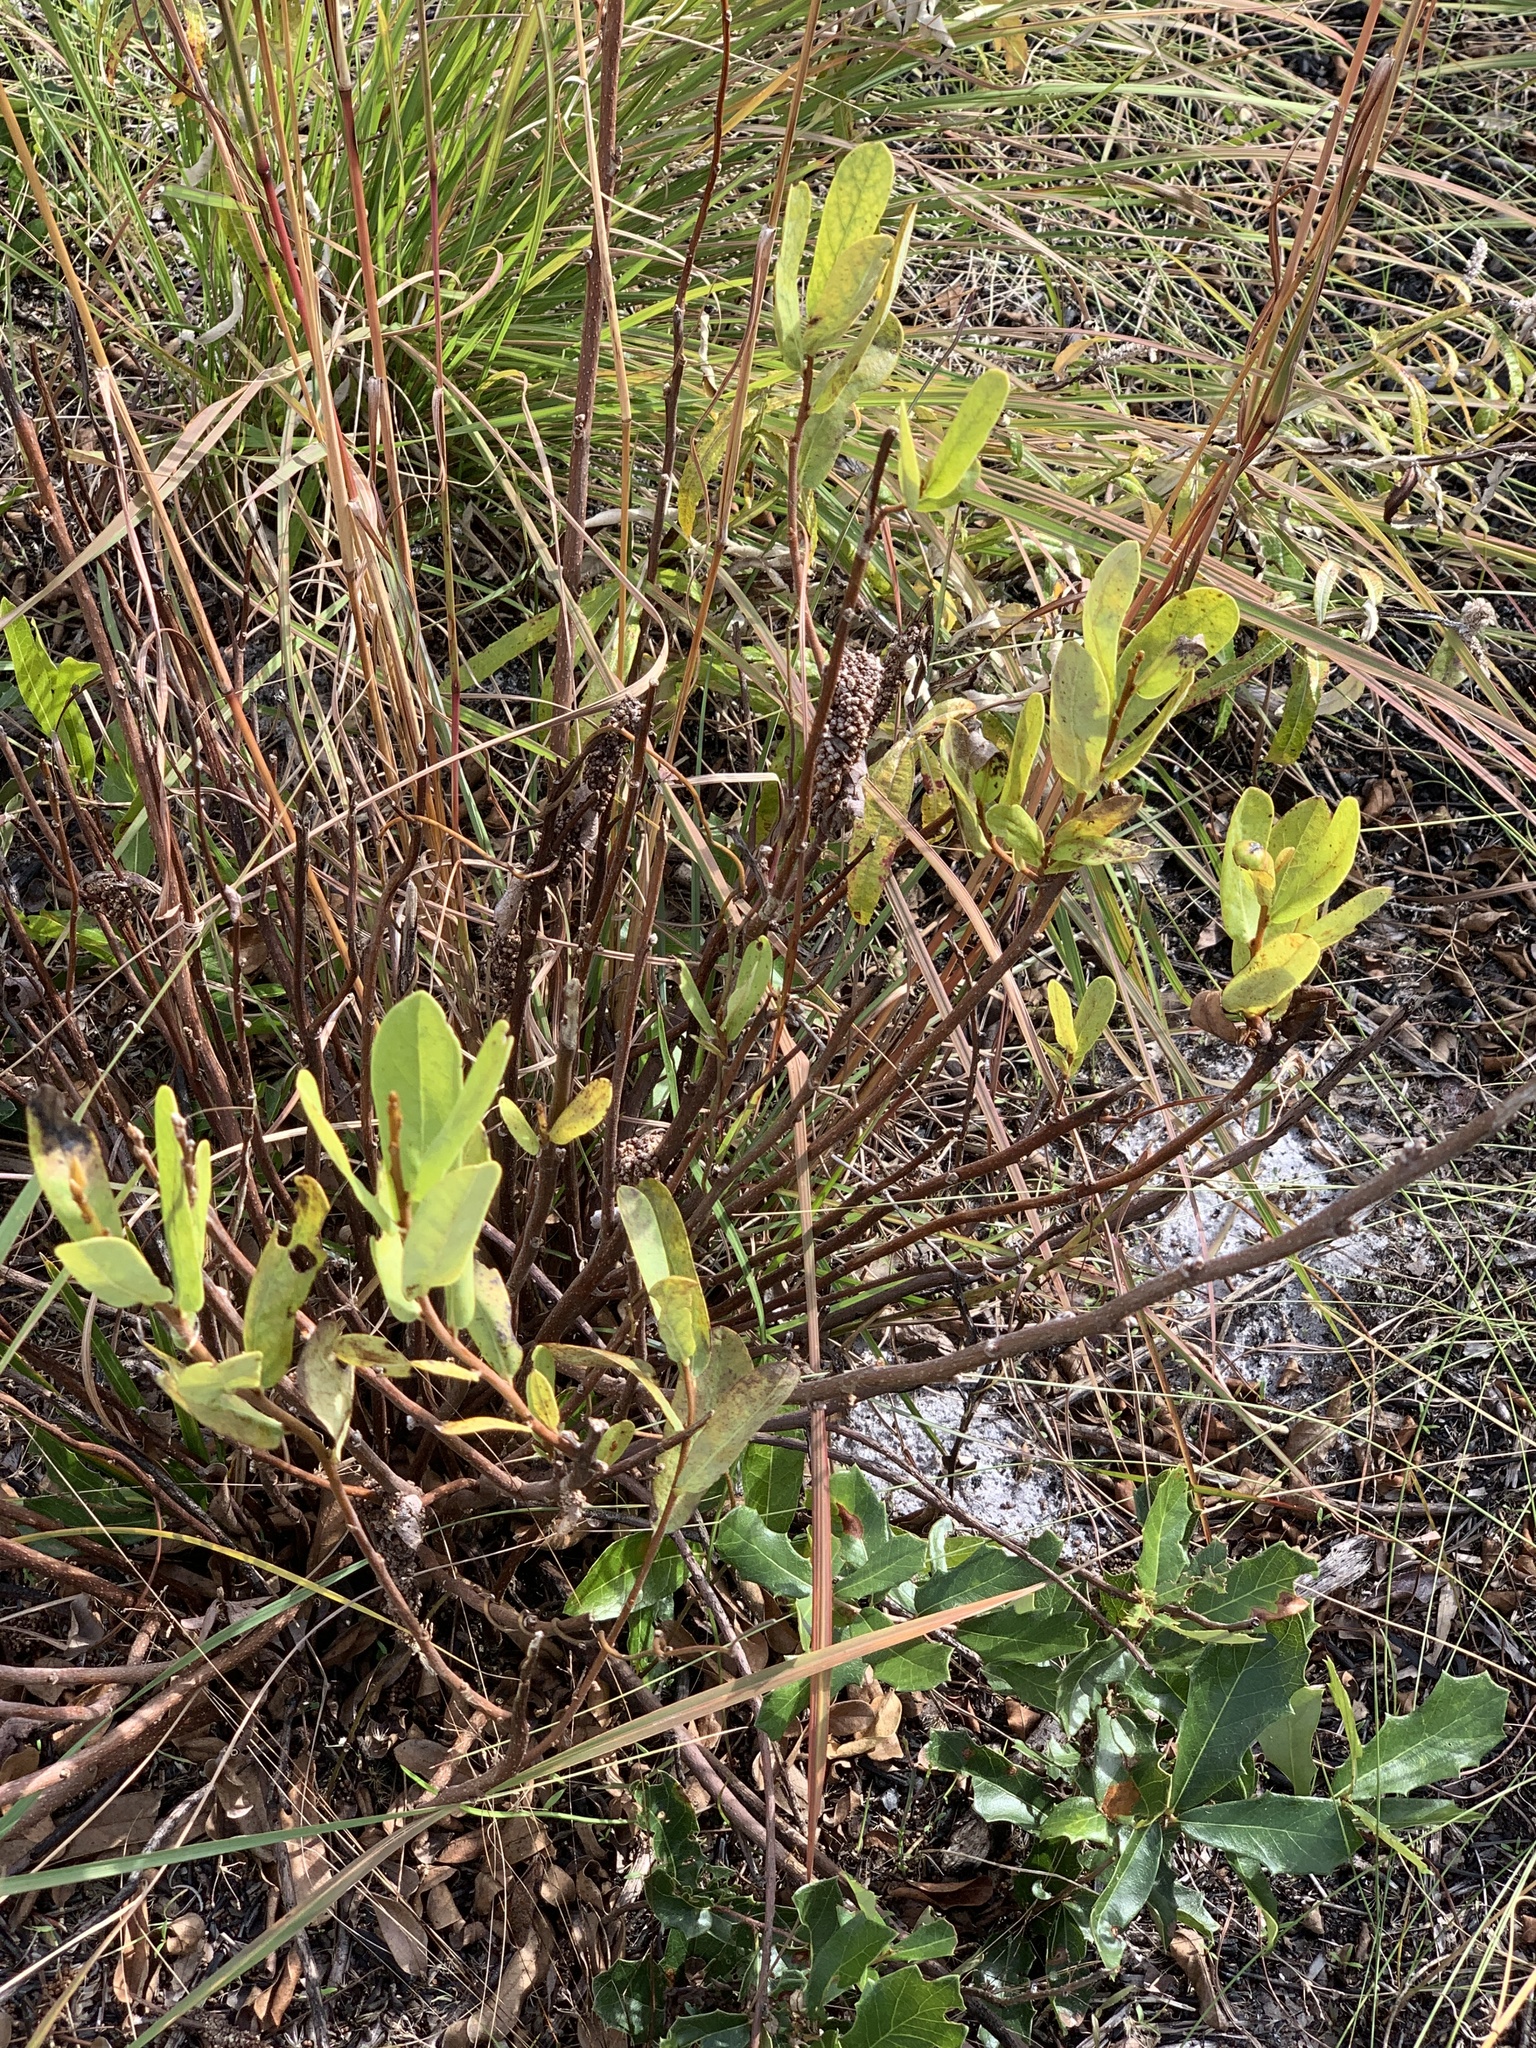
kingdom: Plantae
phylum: Tracheophyta
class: Magnoliopsida
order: Magnoliales
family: Annonaceae
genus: Asimina
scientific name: Asimina reticulata
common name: Flag pawpaw
